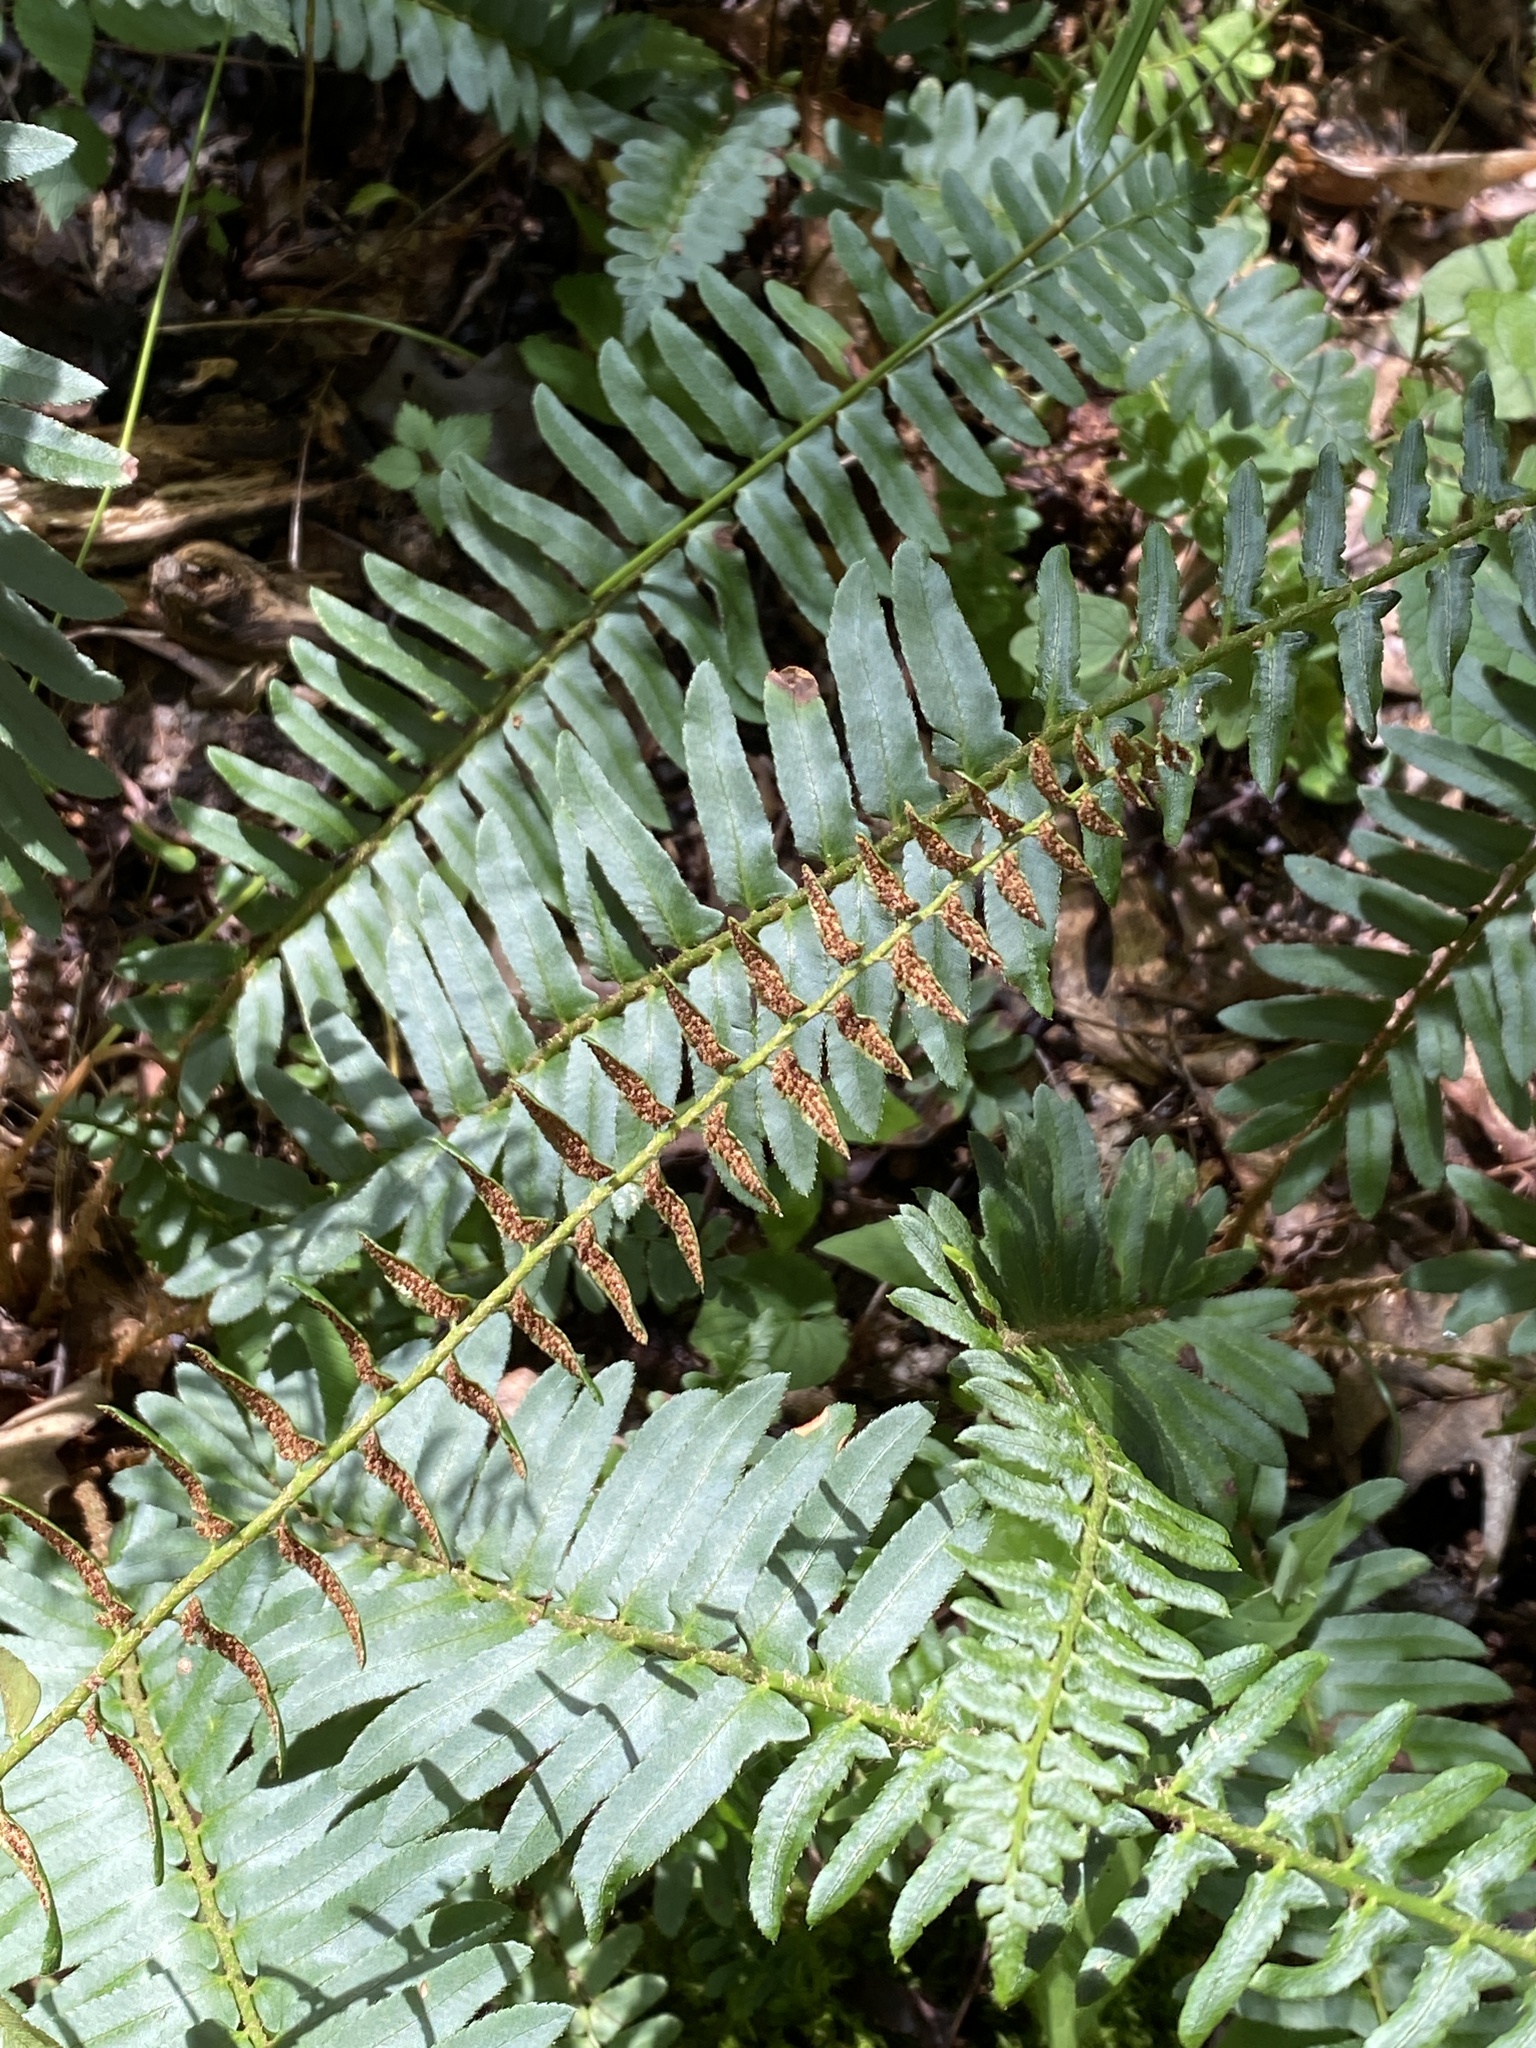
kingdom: Plantae
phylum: Tracheophyta
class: Polypodiopsida
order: Polypodiales
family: Dryopteridaceae
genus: Polystichum
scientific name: Polystichum acrostichoides
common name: Christmas fern
